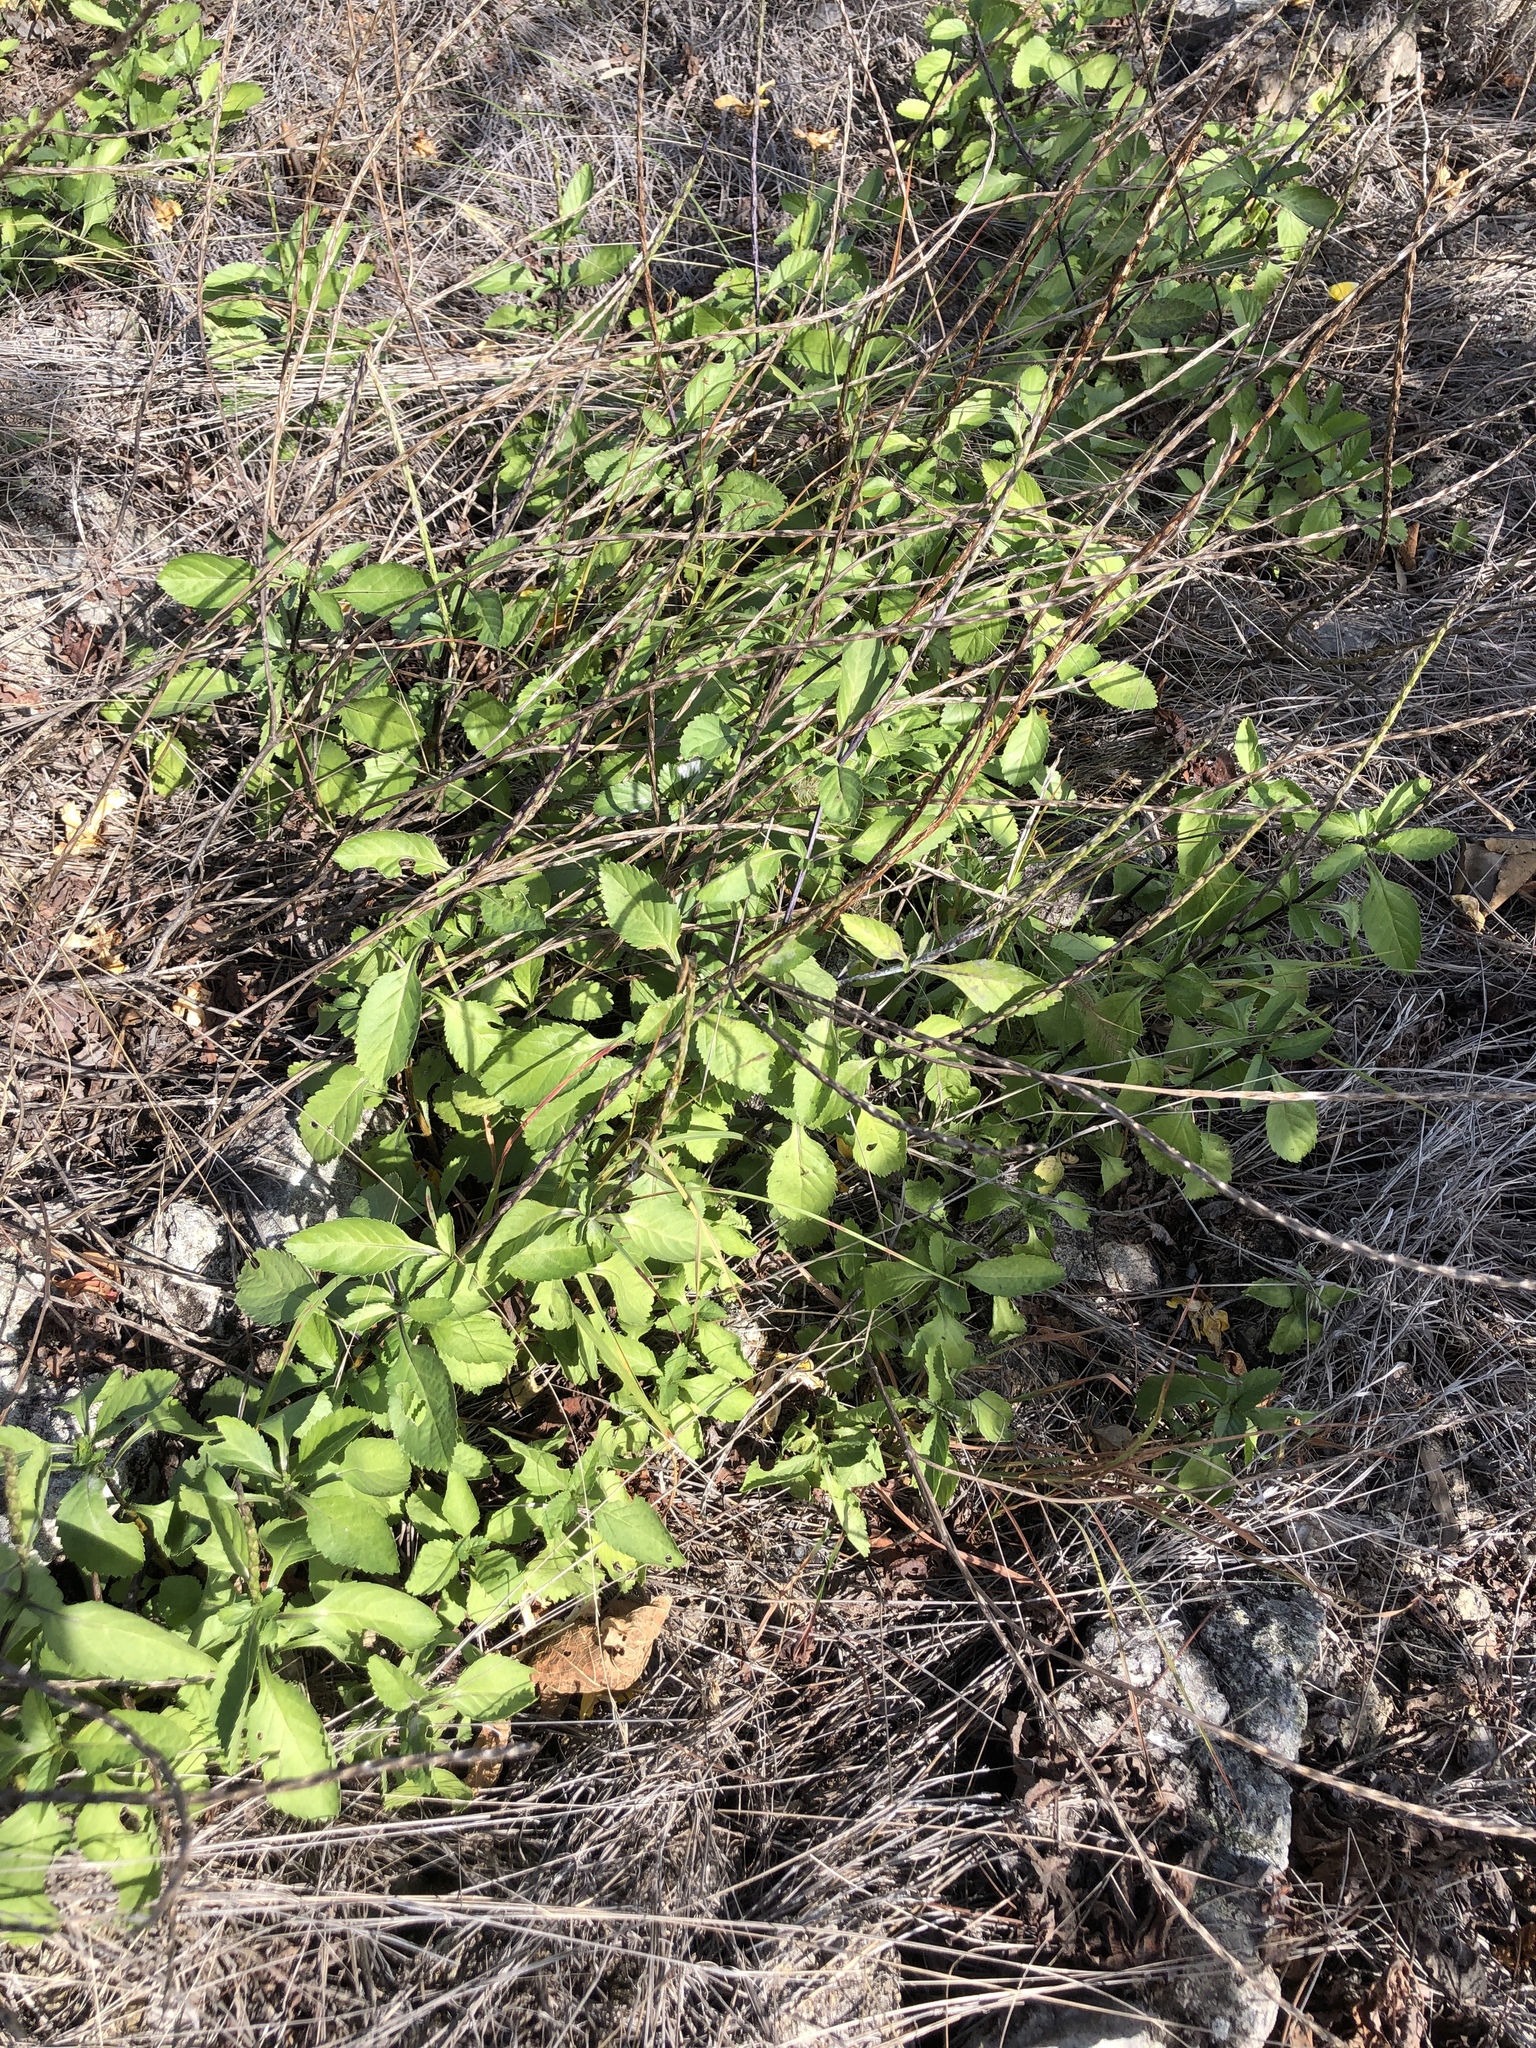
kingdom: Plantae
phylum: Tracheophyta
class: Magnoliopsida
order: Lamiales
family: Verbenaceae
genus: Stachytarpheta
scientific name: Stachytarpheta jamaicensis
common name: Light-blue snakeweed
